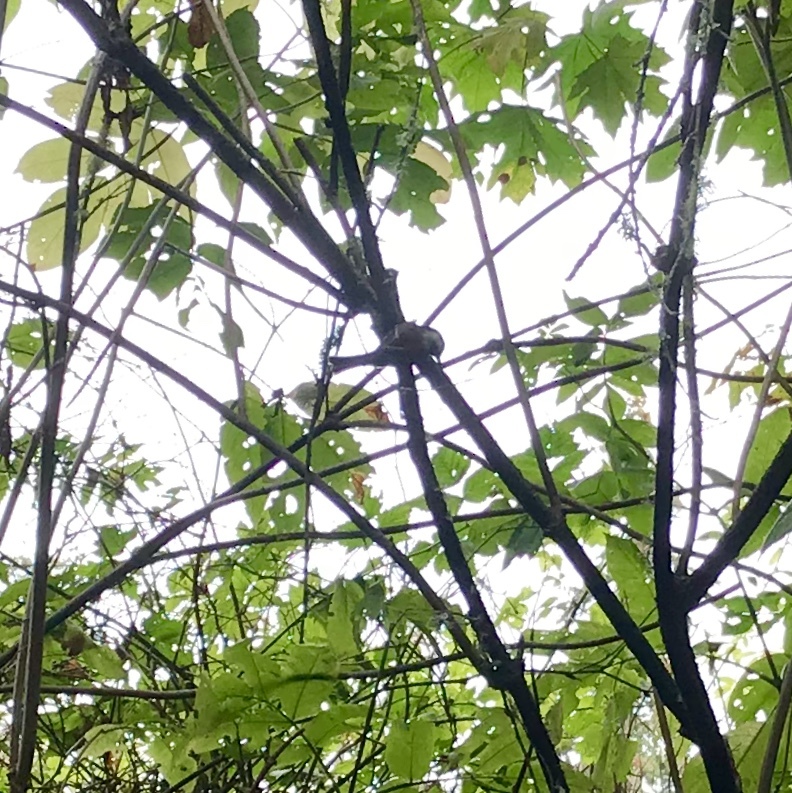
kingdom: Animalia
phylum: Chordata
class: Aves
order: Passeriformes
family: Paridae
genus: Poecile
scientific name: Poecile rufescens
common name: Chestnut-backed chickadee
